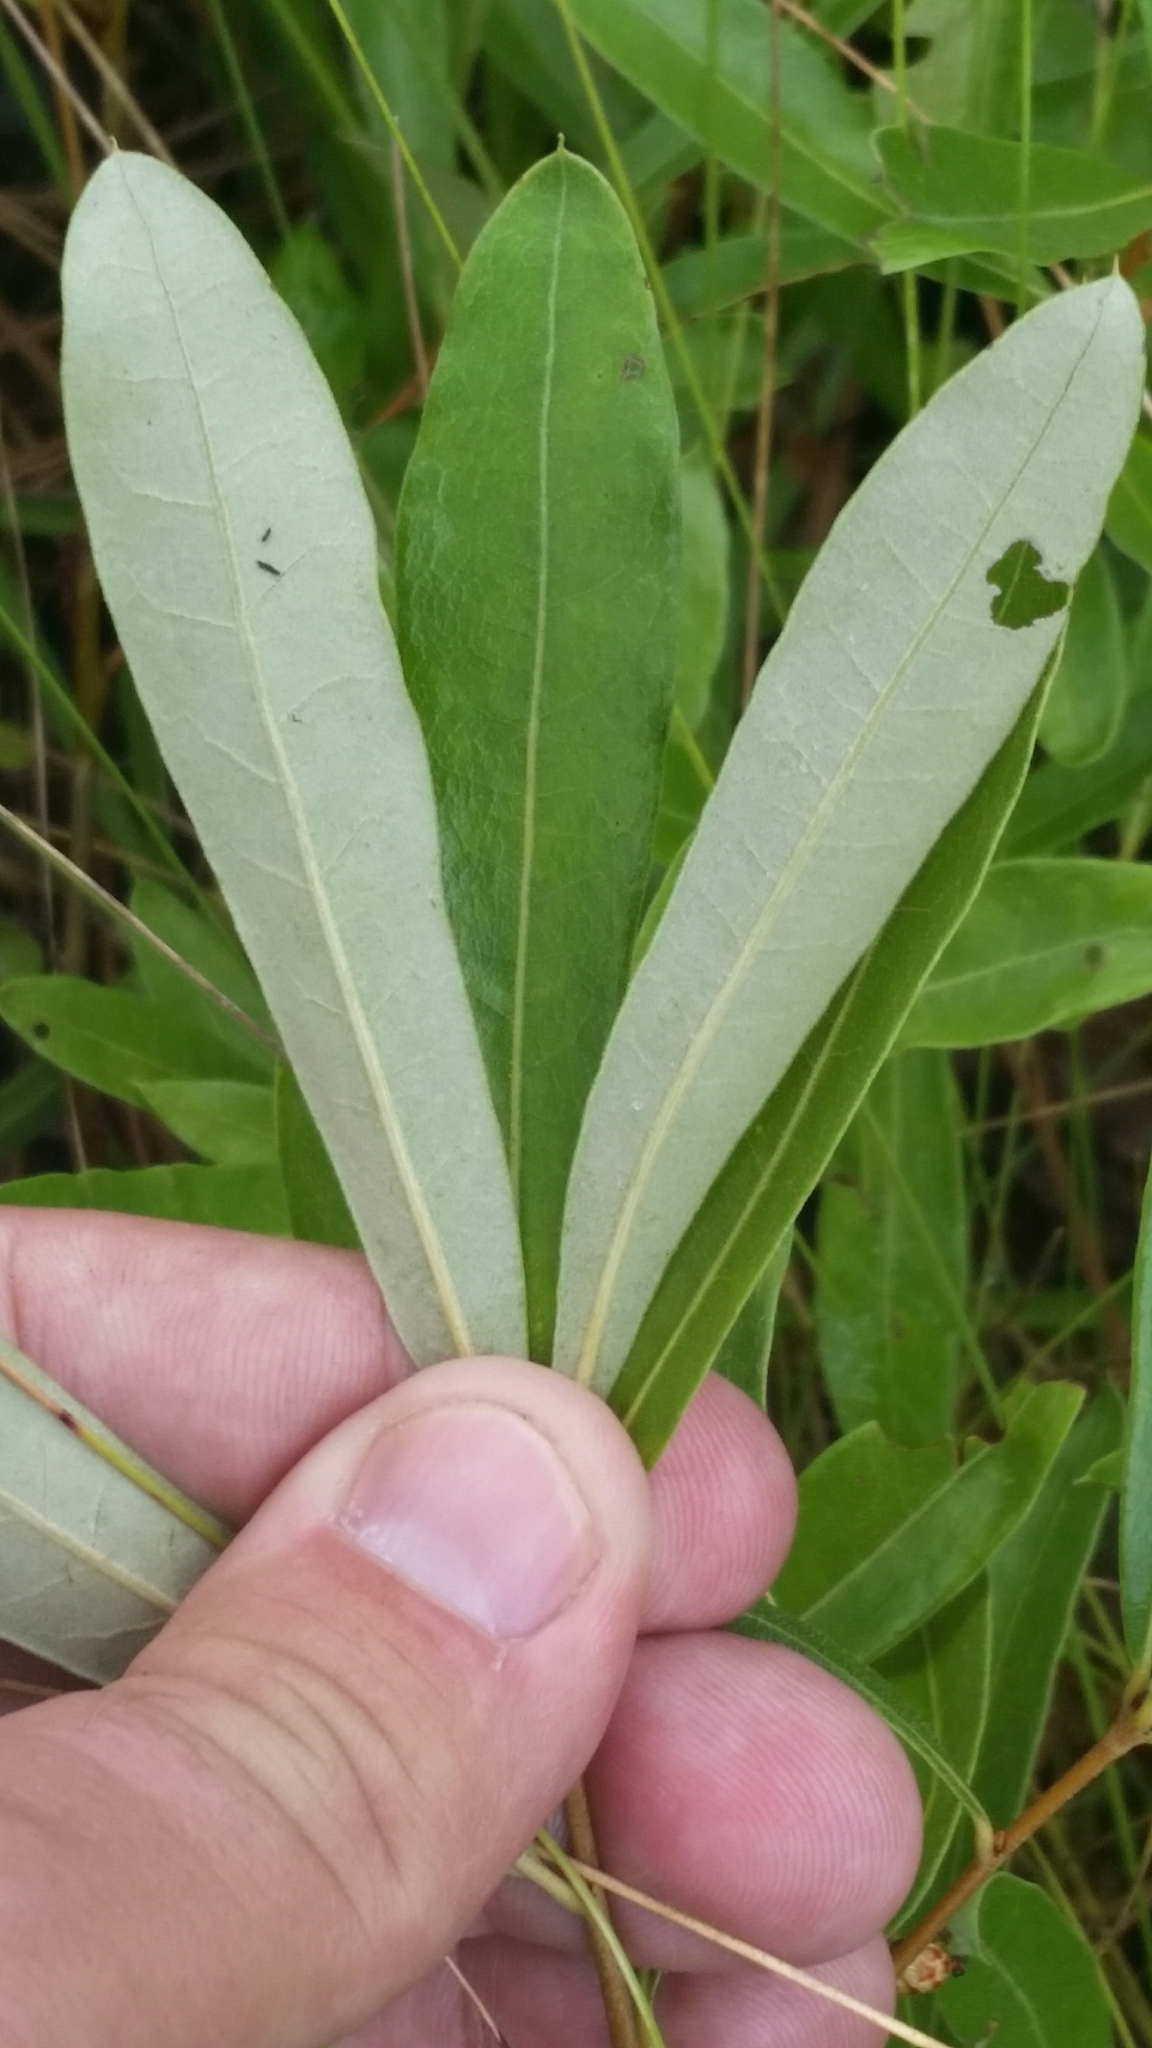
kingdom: Plantae
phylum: Tracheophyta
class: Magnoliopsida
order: Fagales
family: Fagaceae
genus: Quercus
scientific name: Quercus pumila
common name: Runner oak
